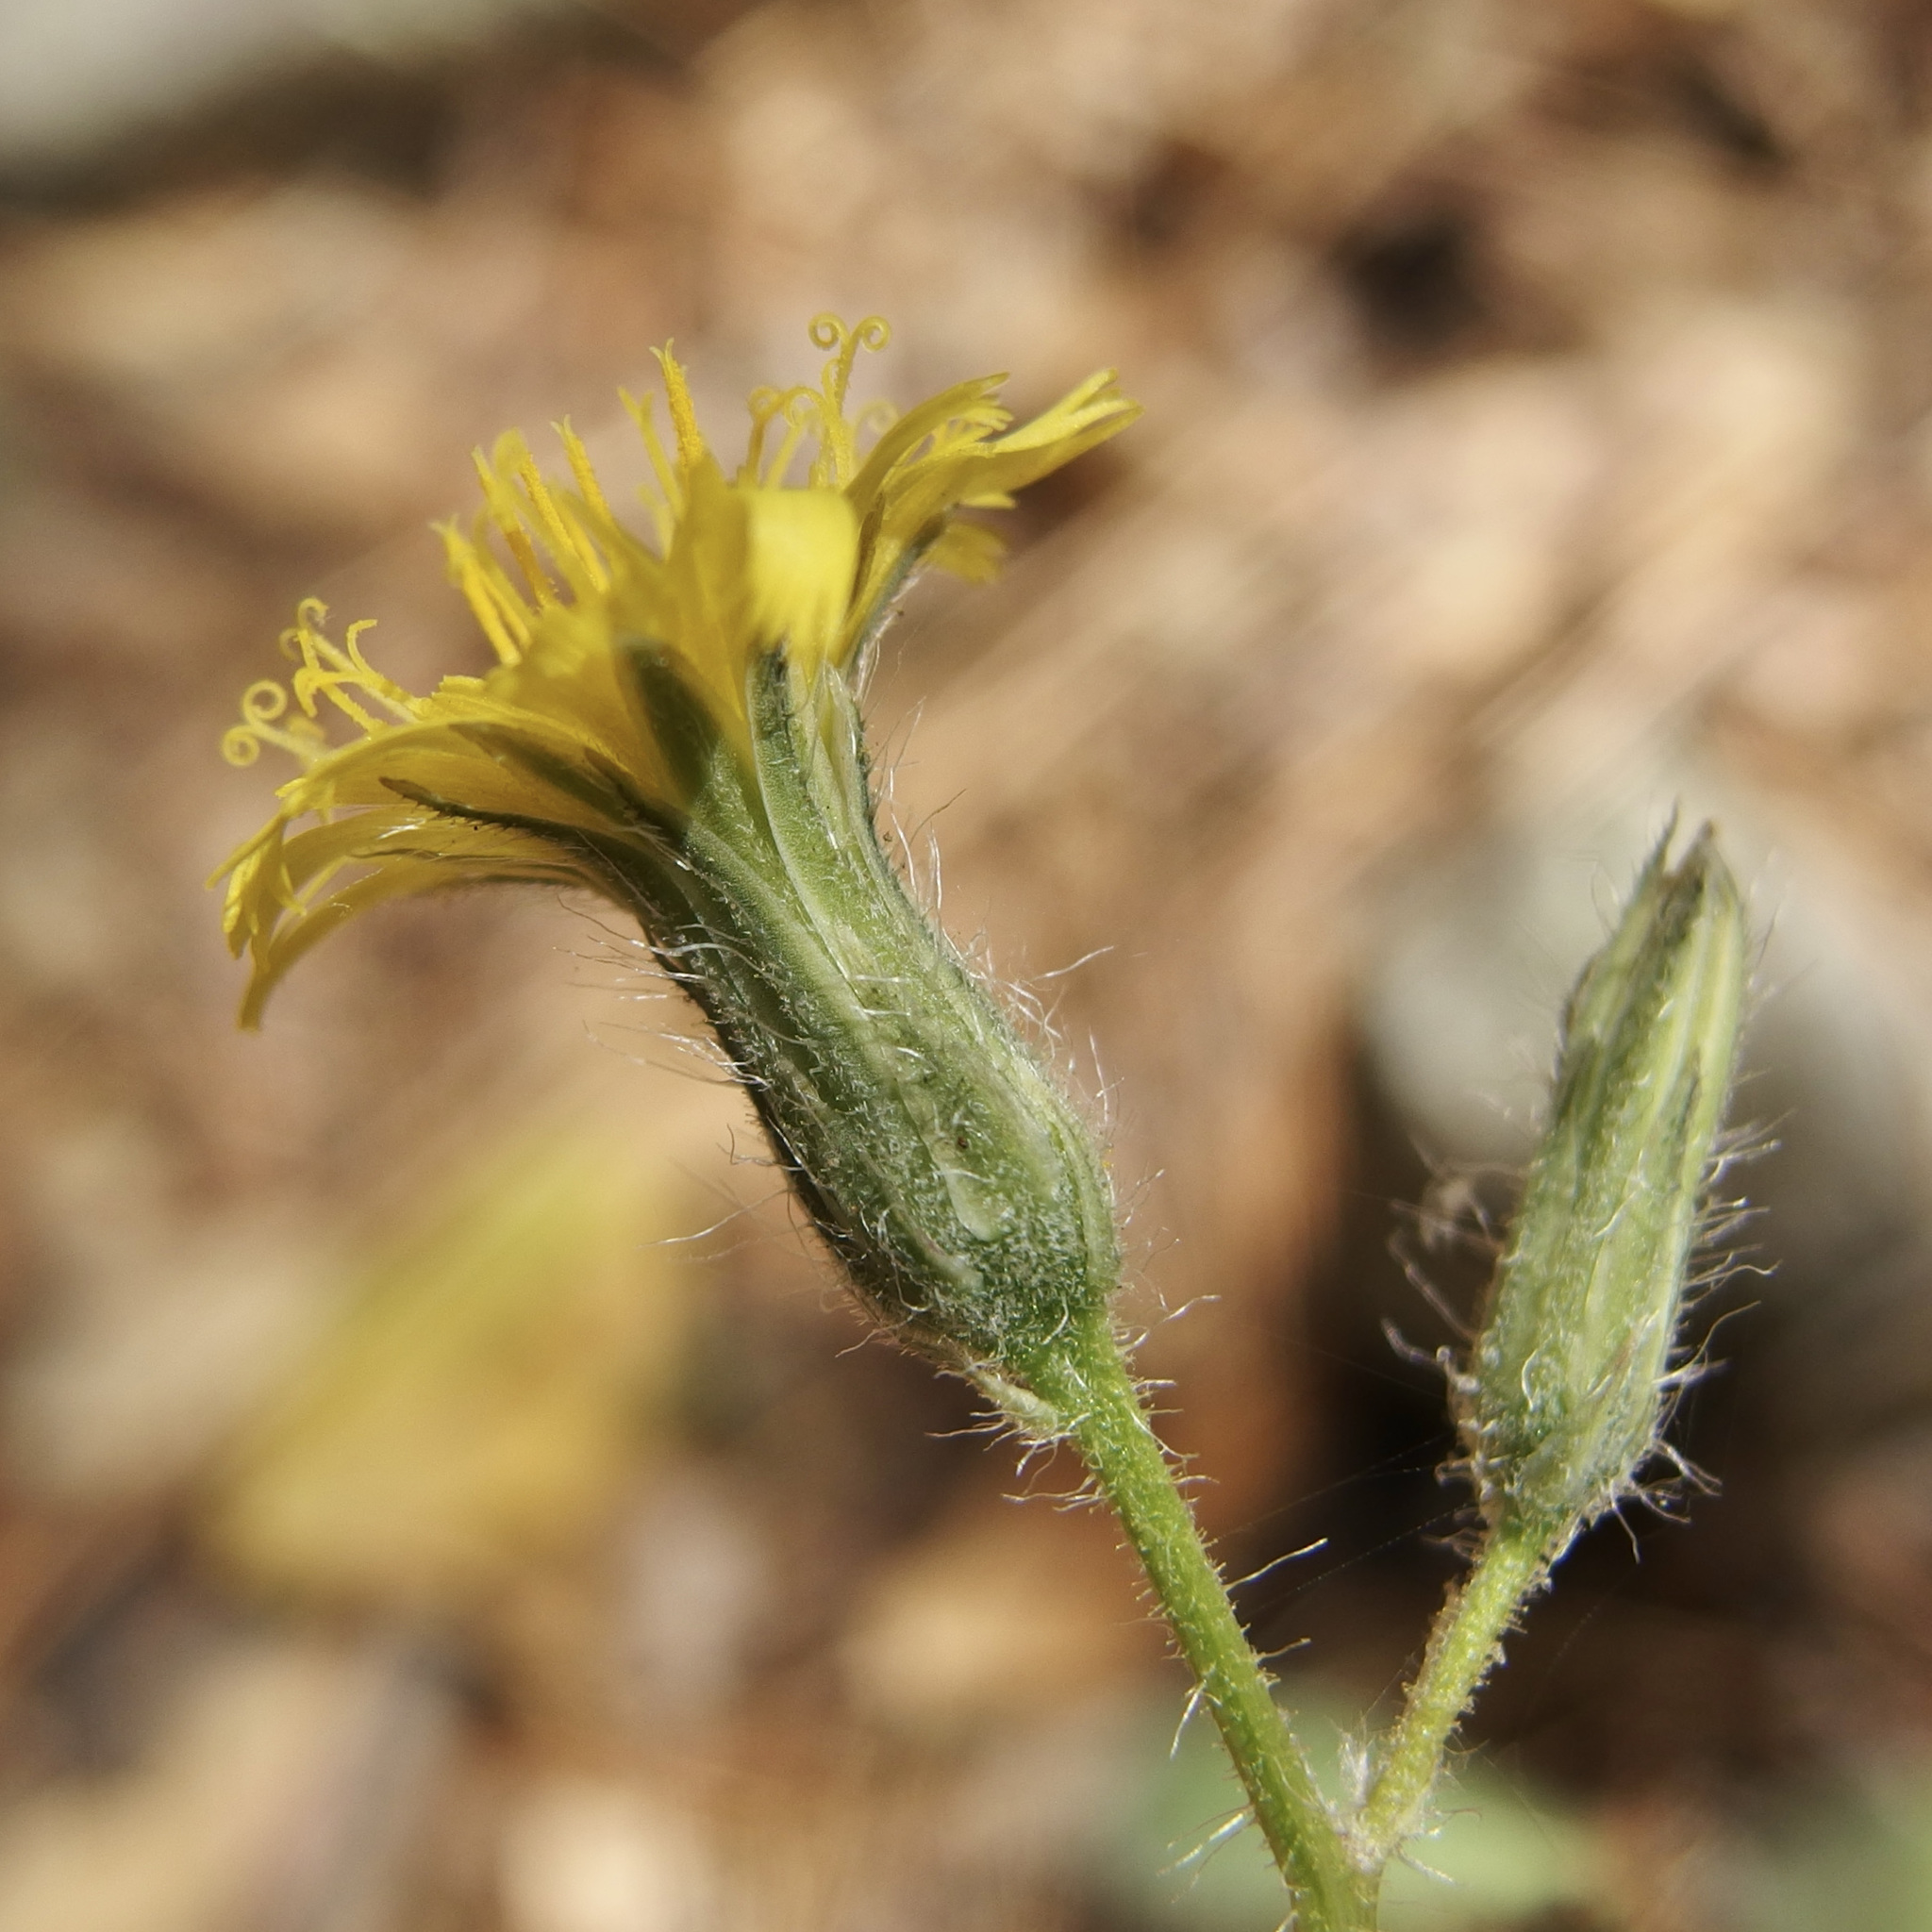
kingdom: Plantae
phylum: Tracheophyta
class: Magnoliopsida
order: Asterales
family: Asteraceae
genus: Hieracium
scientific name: Hieracium fendleri
